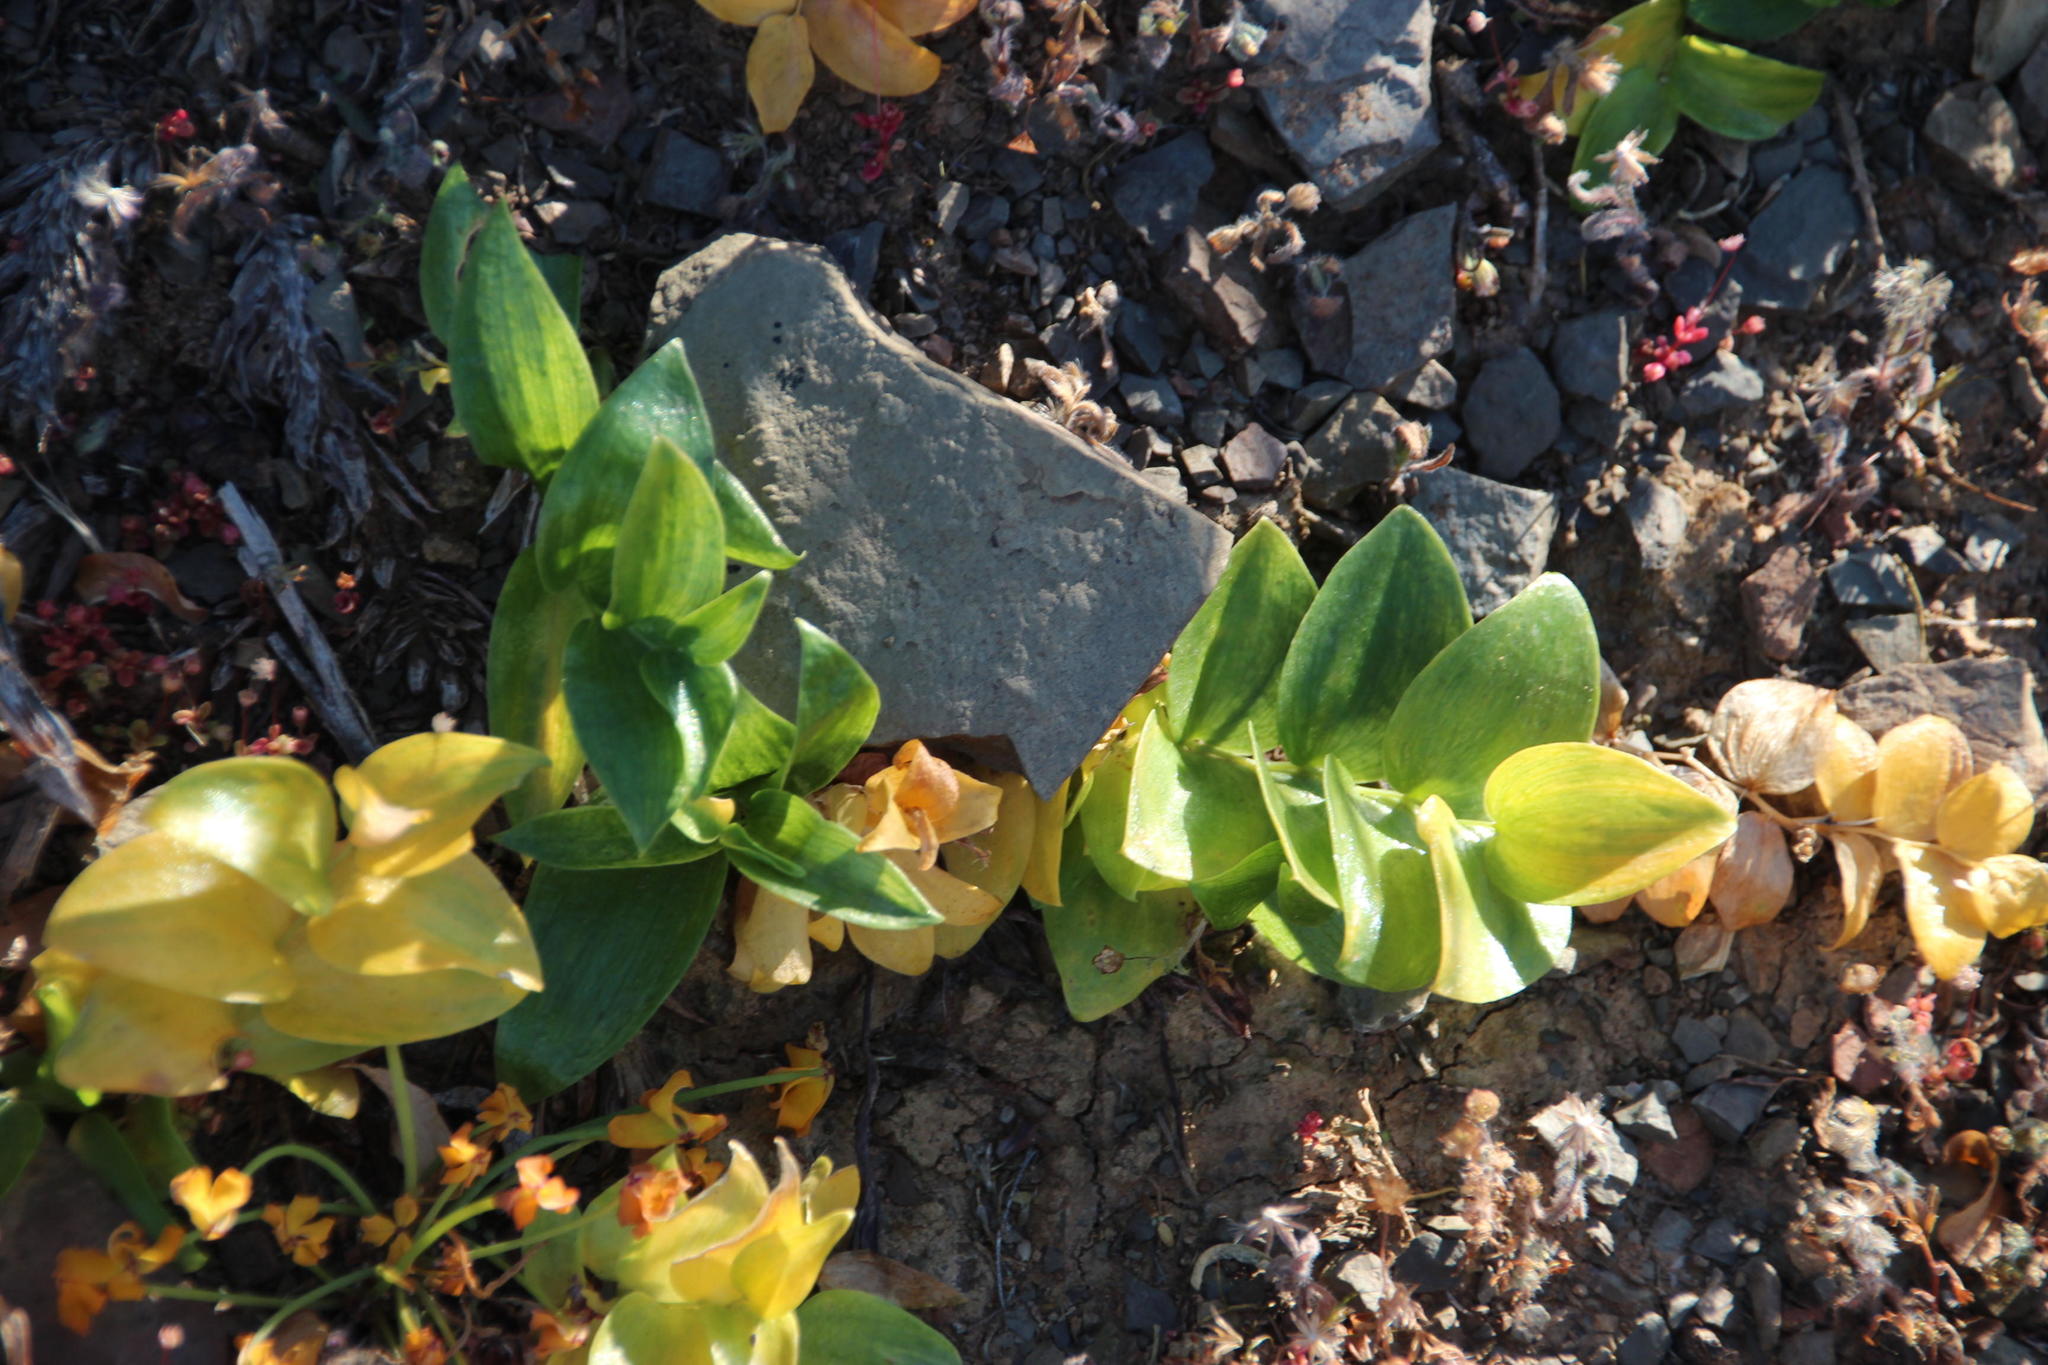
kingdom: Plantae
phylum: Tracheophyta
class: Liliopsida
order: Asparagales
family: Asparagaceae
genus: Asparagus
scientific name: Asparagus multituberosus
